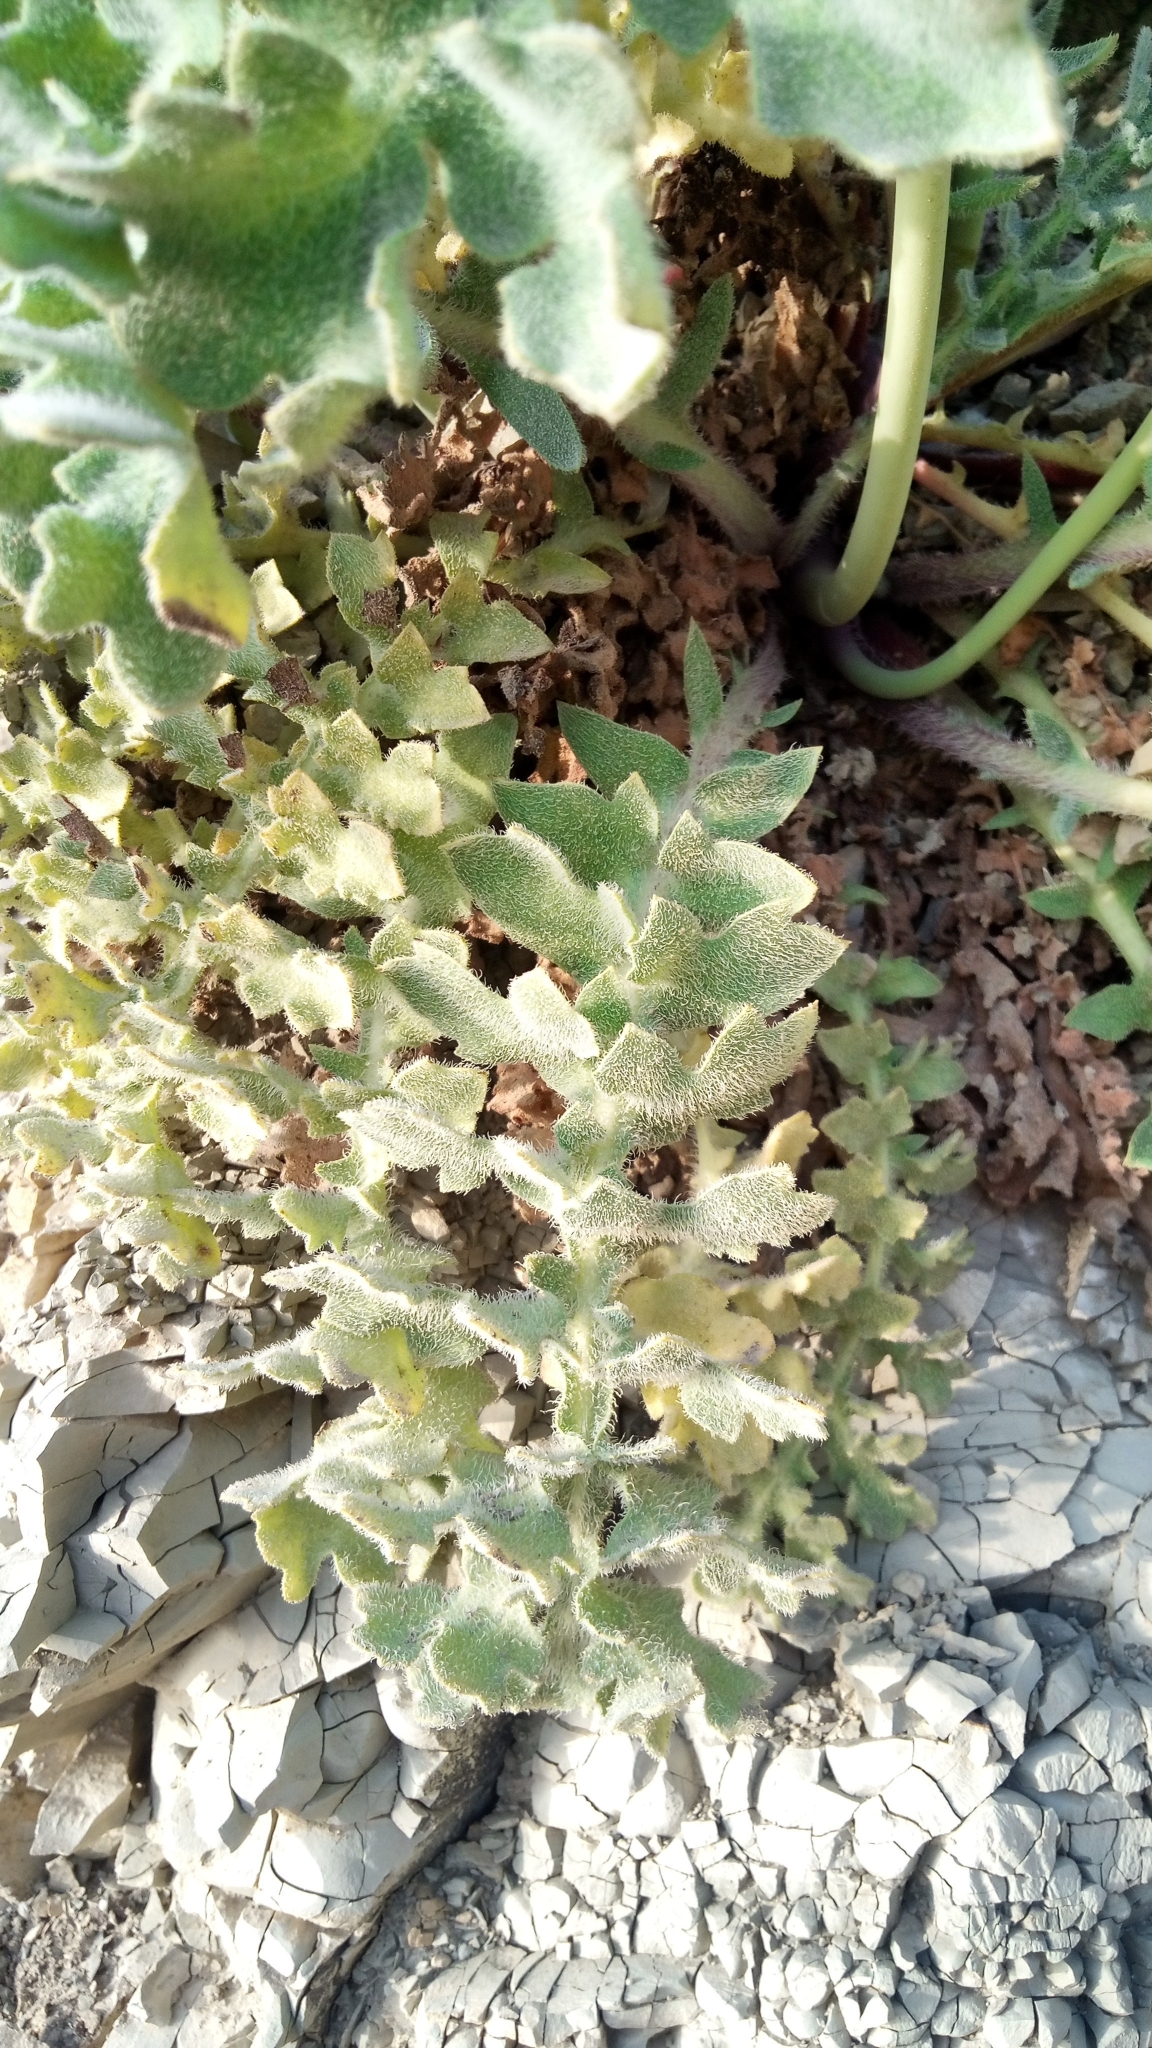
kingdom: Plantae
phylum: Tracheophyta
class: Magnoliopsida
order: Ranunculales
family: Papaveraceae
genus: Glaucium
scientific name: Glaucium flavum
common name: Yellow horned-poppy
